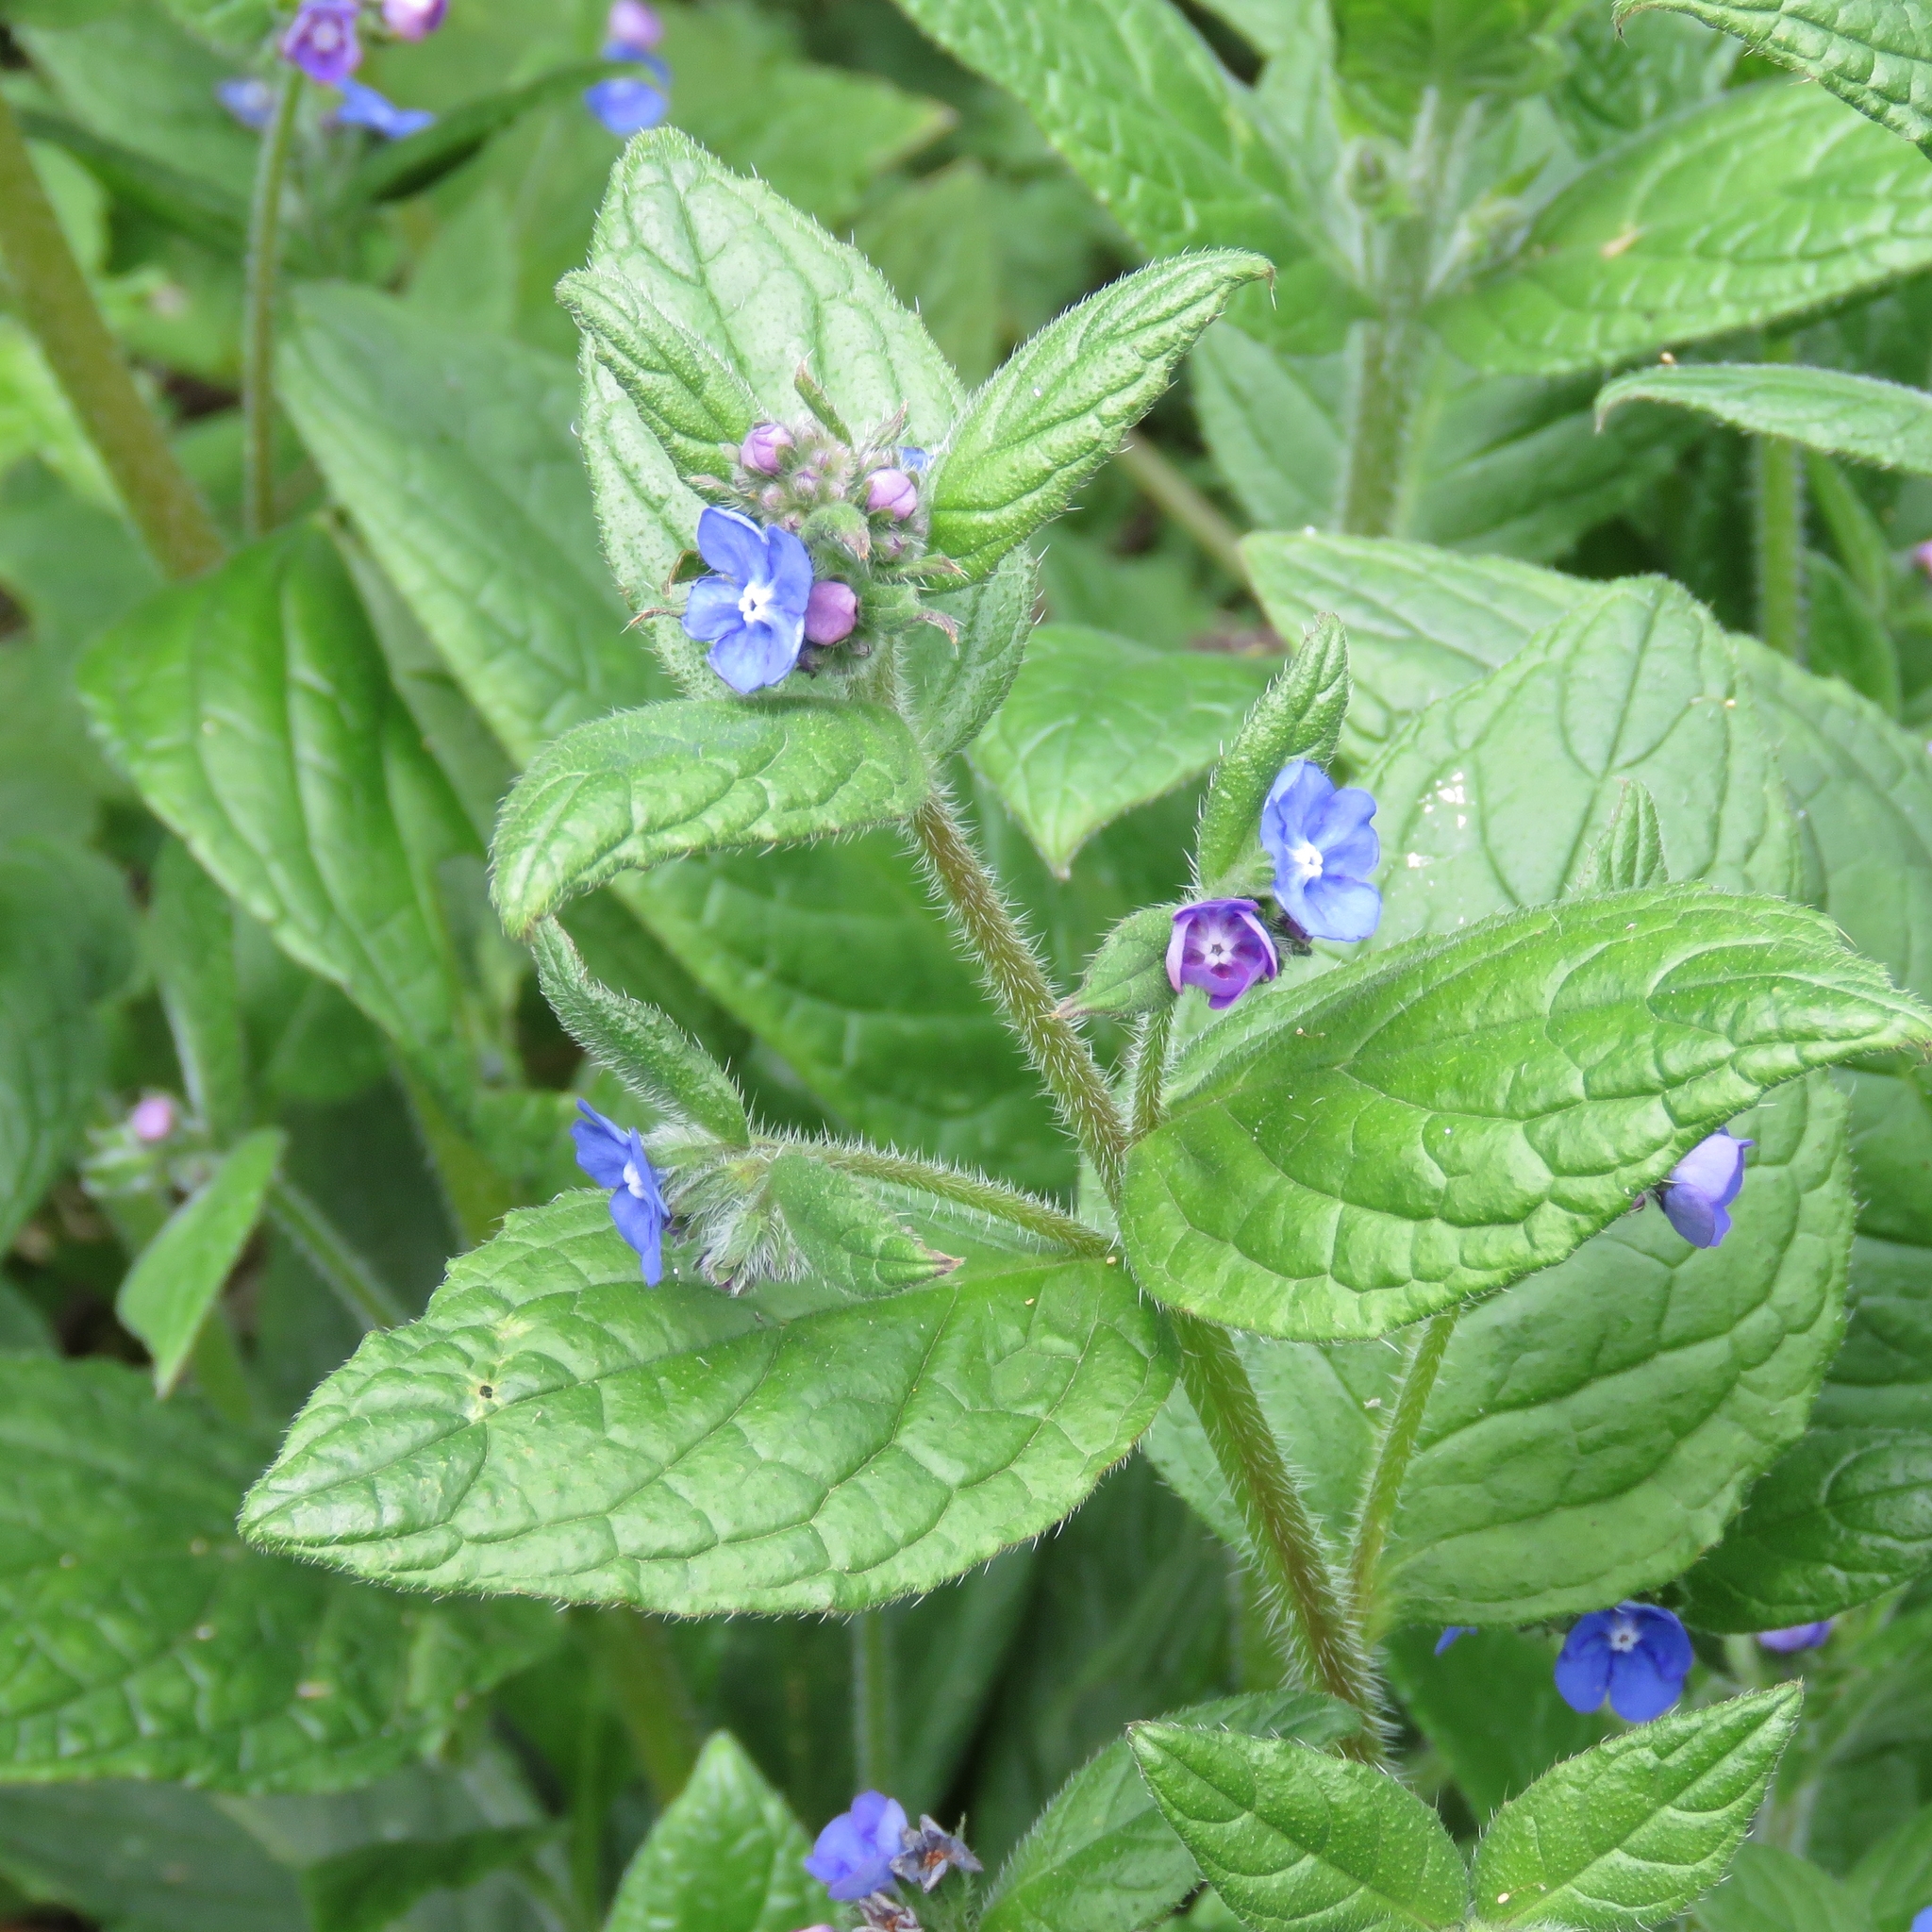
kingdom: Plantae
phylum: Tracheophyta
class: Magnoliopsida
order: Boraginales
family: Boraginaceae
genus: Pentaglottis
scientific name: Pentaglottis sempervirens
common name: Green alkanet
